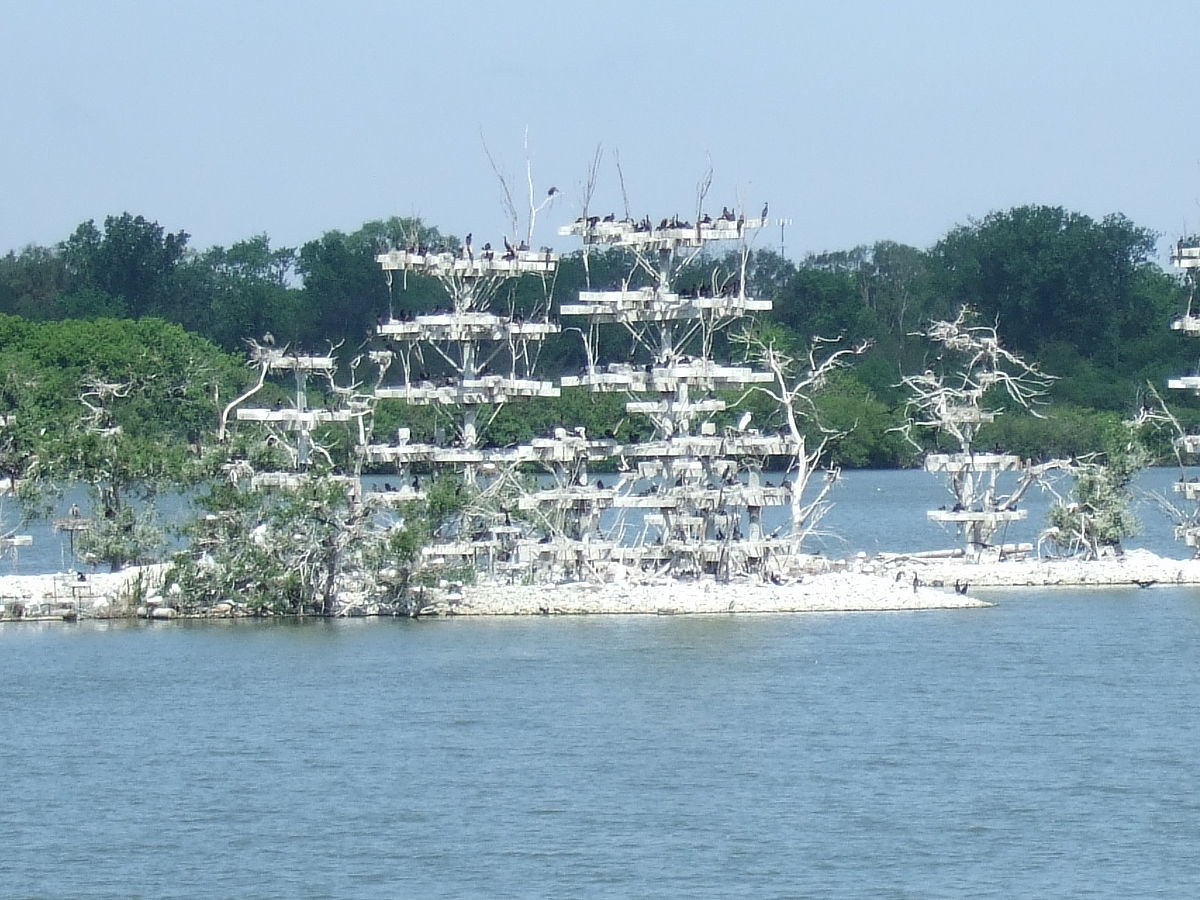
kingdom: Animalia
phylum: Chordata
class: Aves
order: Suliformes
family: Phalacrocoracidae
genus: Phalacrocorax
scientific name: Phalacrocorax auritus
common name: Double-crested cormorant
